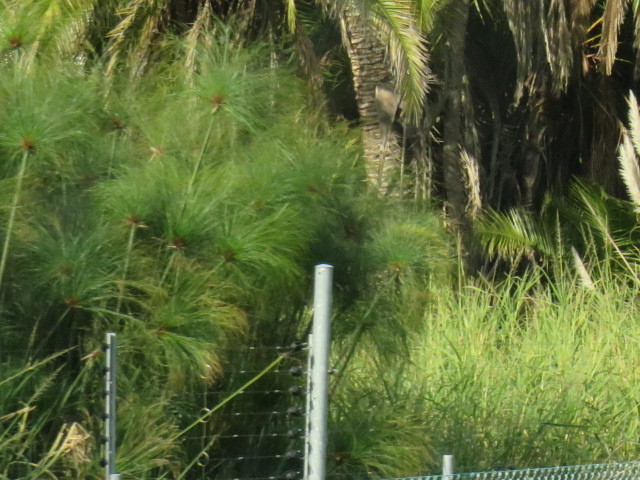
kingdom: Plantae
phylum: Tracheophyta
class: Liliopsida
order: Poales
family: Cyperaceae
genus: Cyperus
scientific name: Cyperus papyrus
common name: Papyrus
